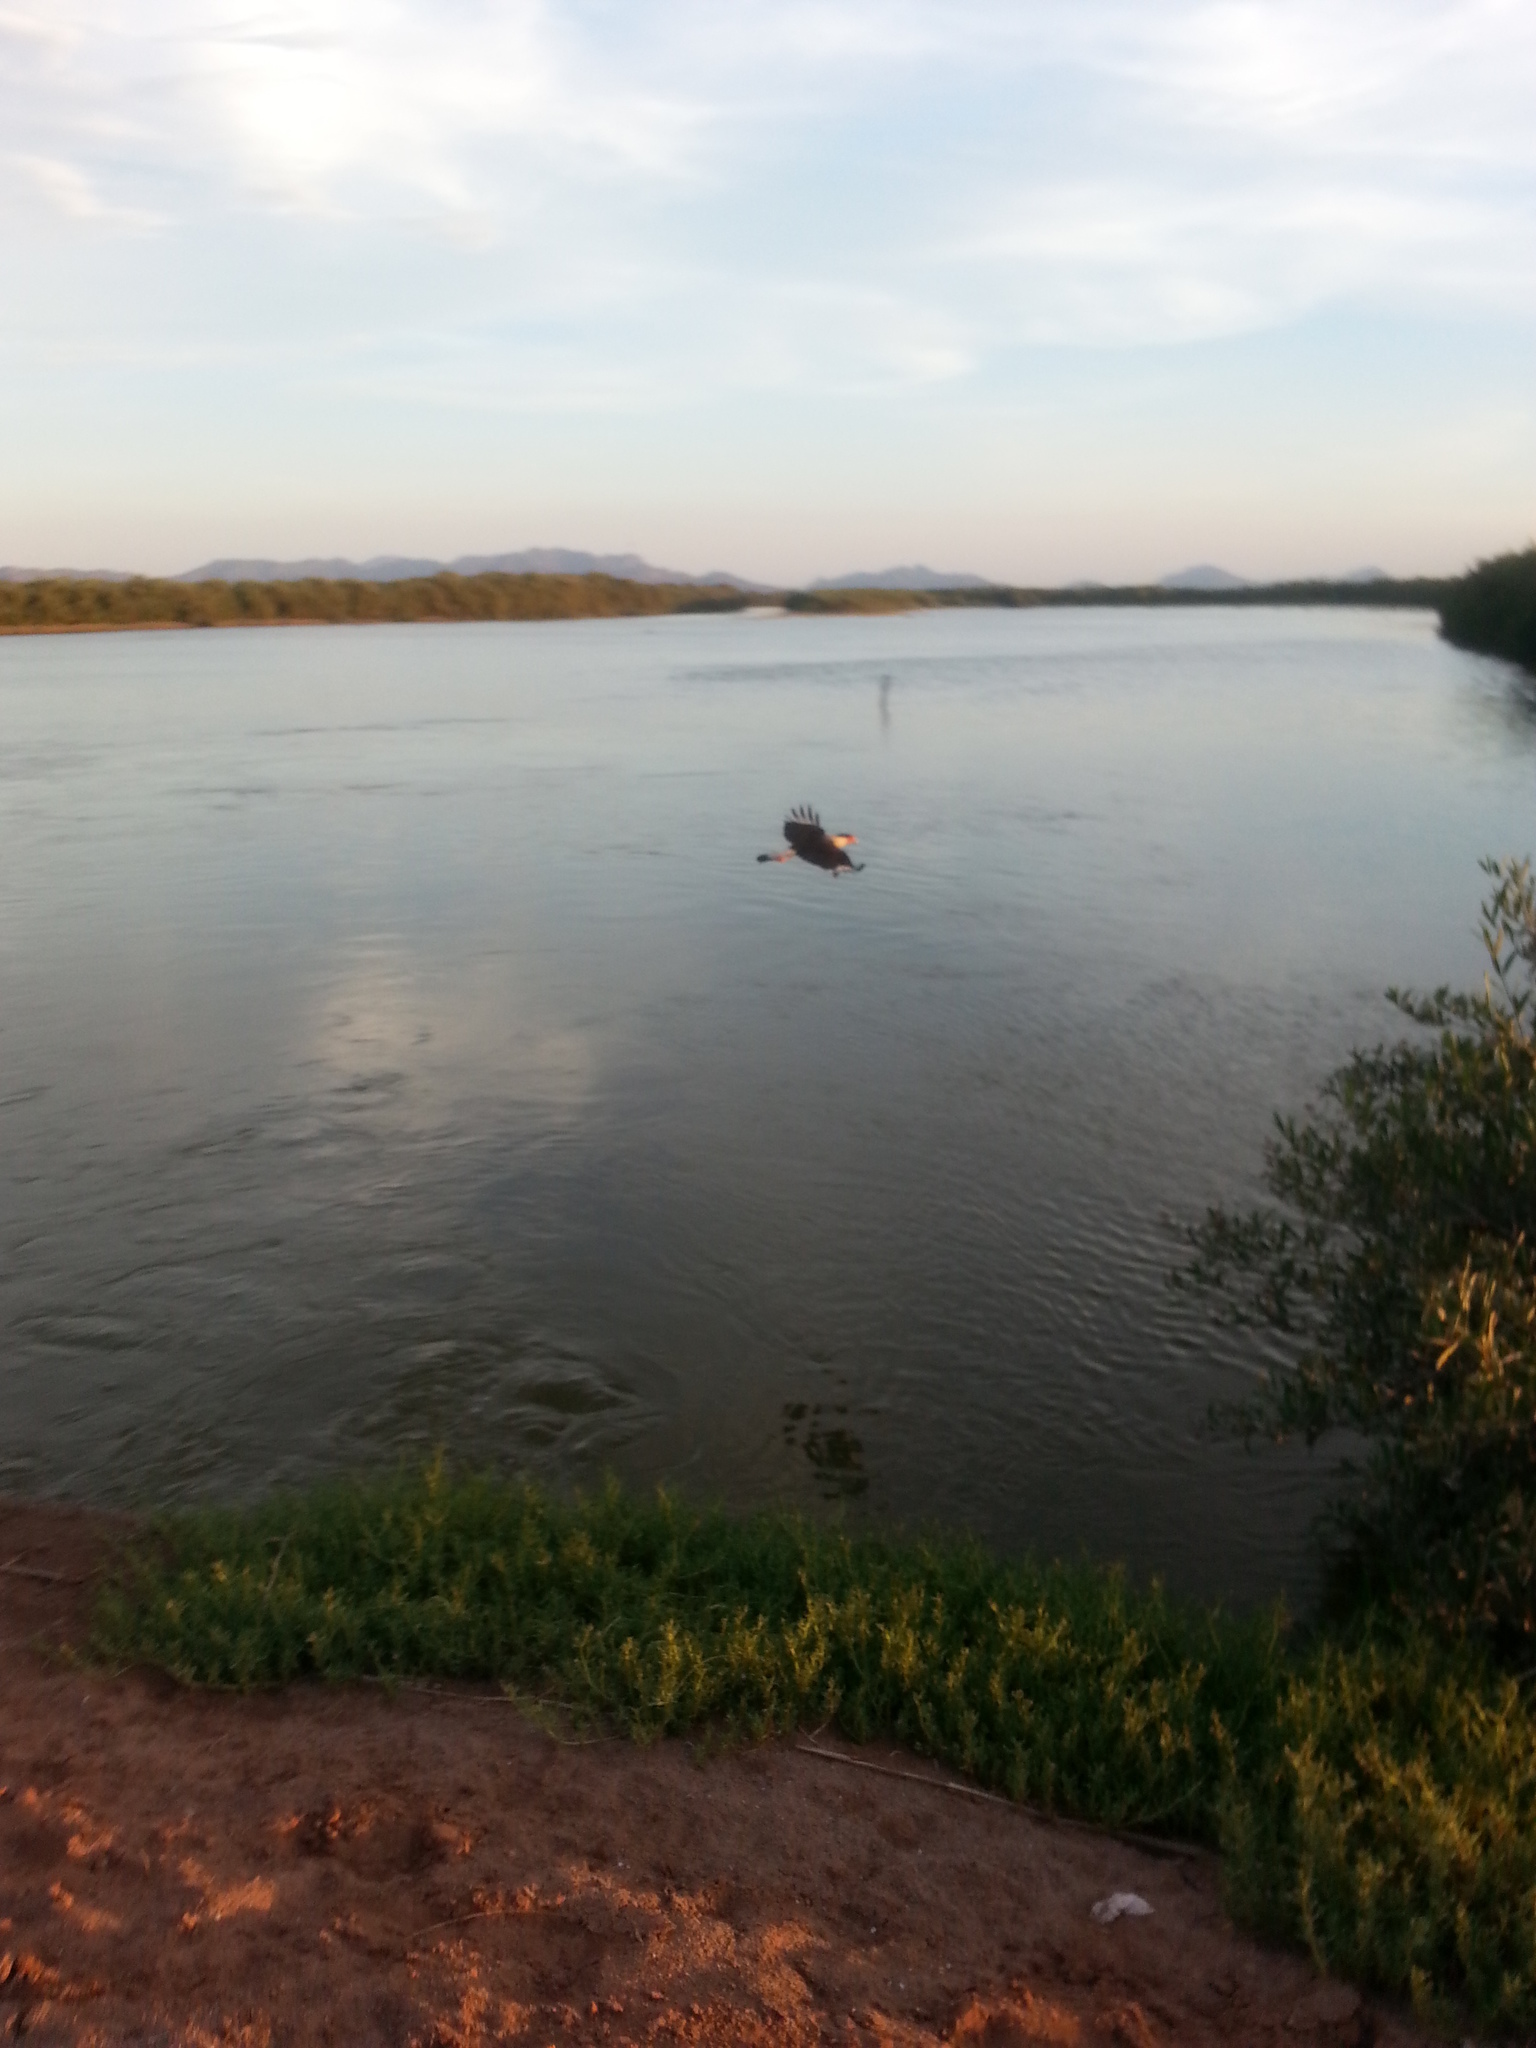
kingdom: Animalia
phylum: Chordata
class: Aves
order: Falconiformes
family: Falconidae
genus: Caracara
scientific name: Caracara plancus
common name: Southern caracara
